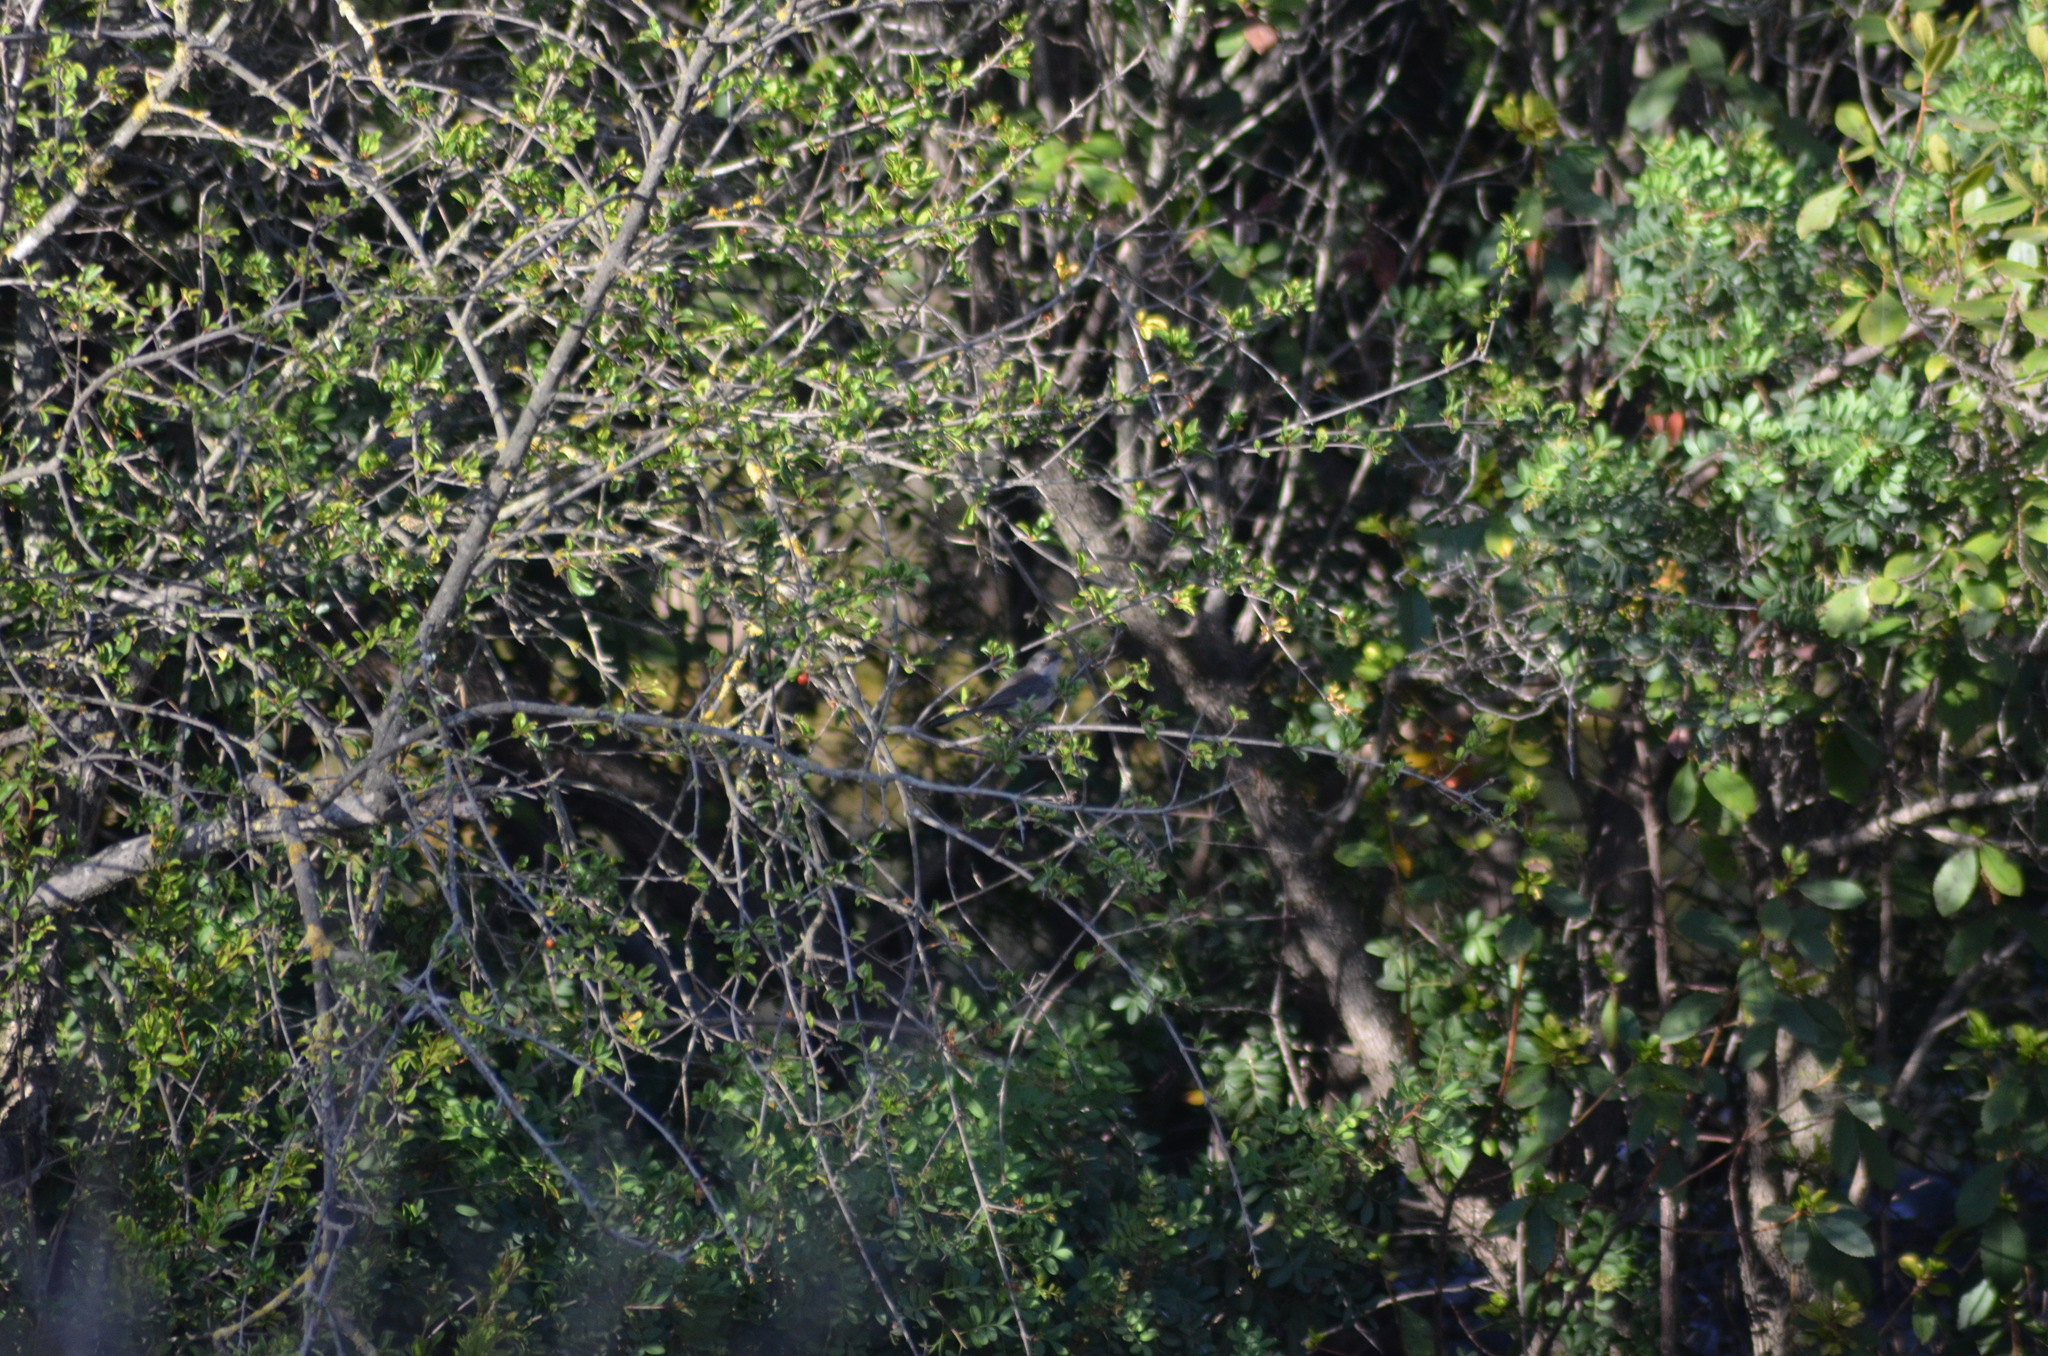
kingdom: Animalia
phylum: Chordata
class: Aves
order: Passeriformes
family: Sylviidae
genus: Curruca
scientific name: Curruca melanocephala
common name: Sardinian warbler
